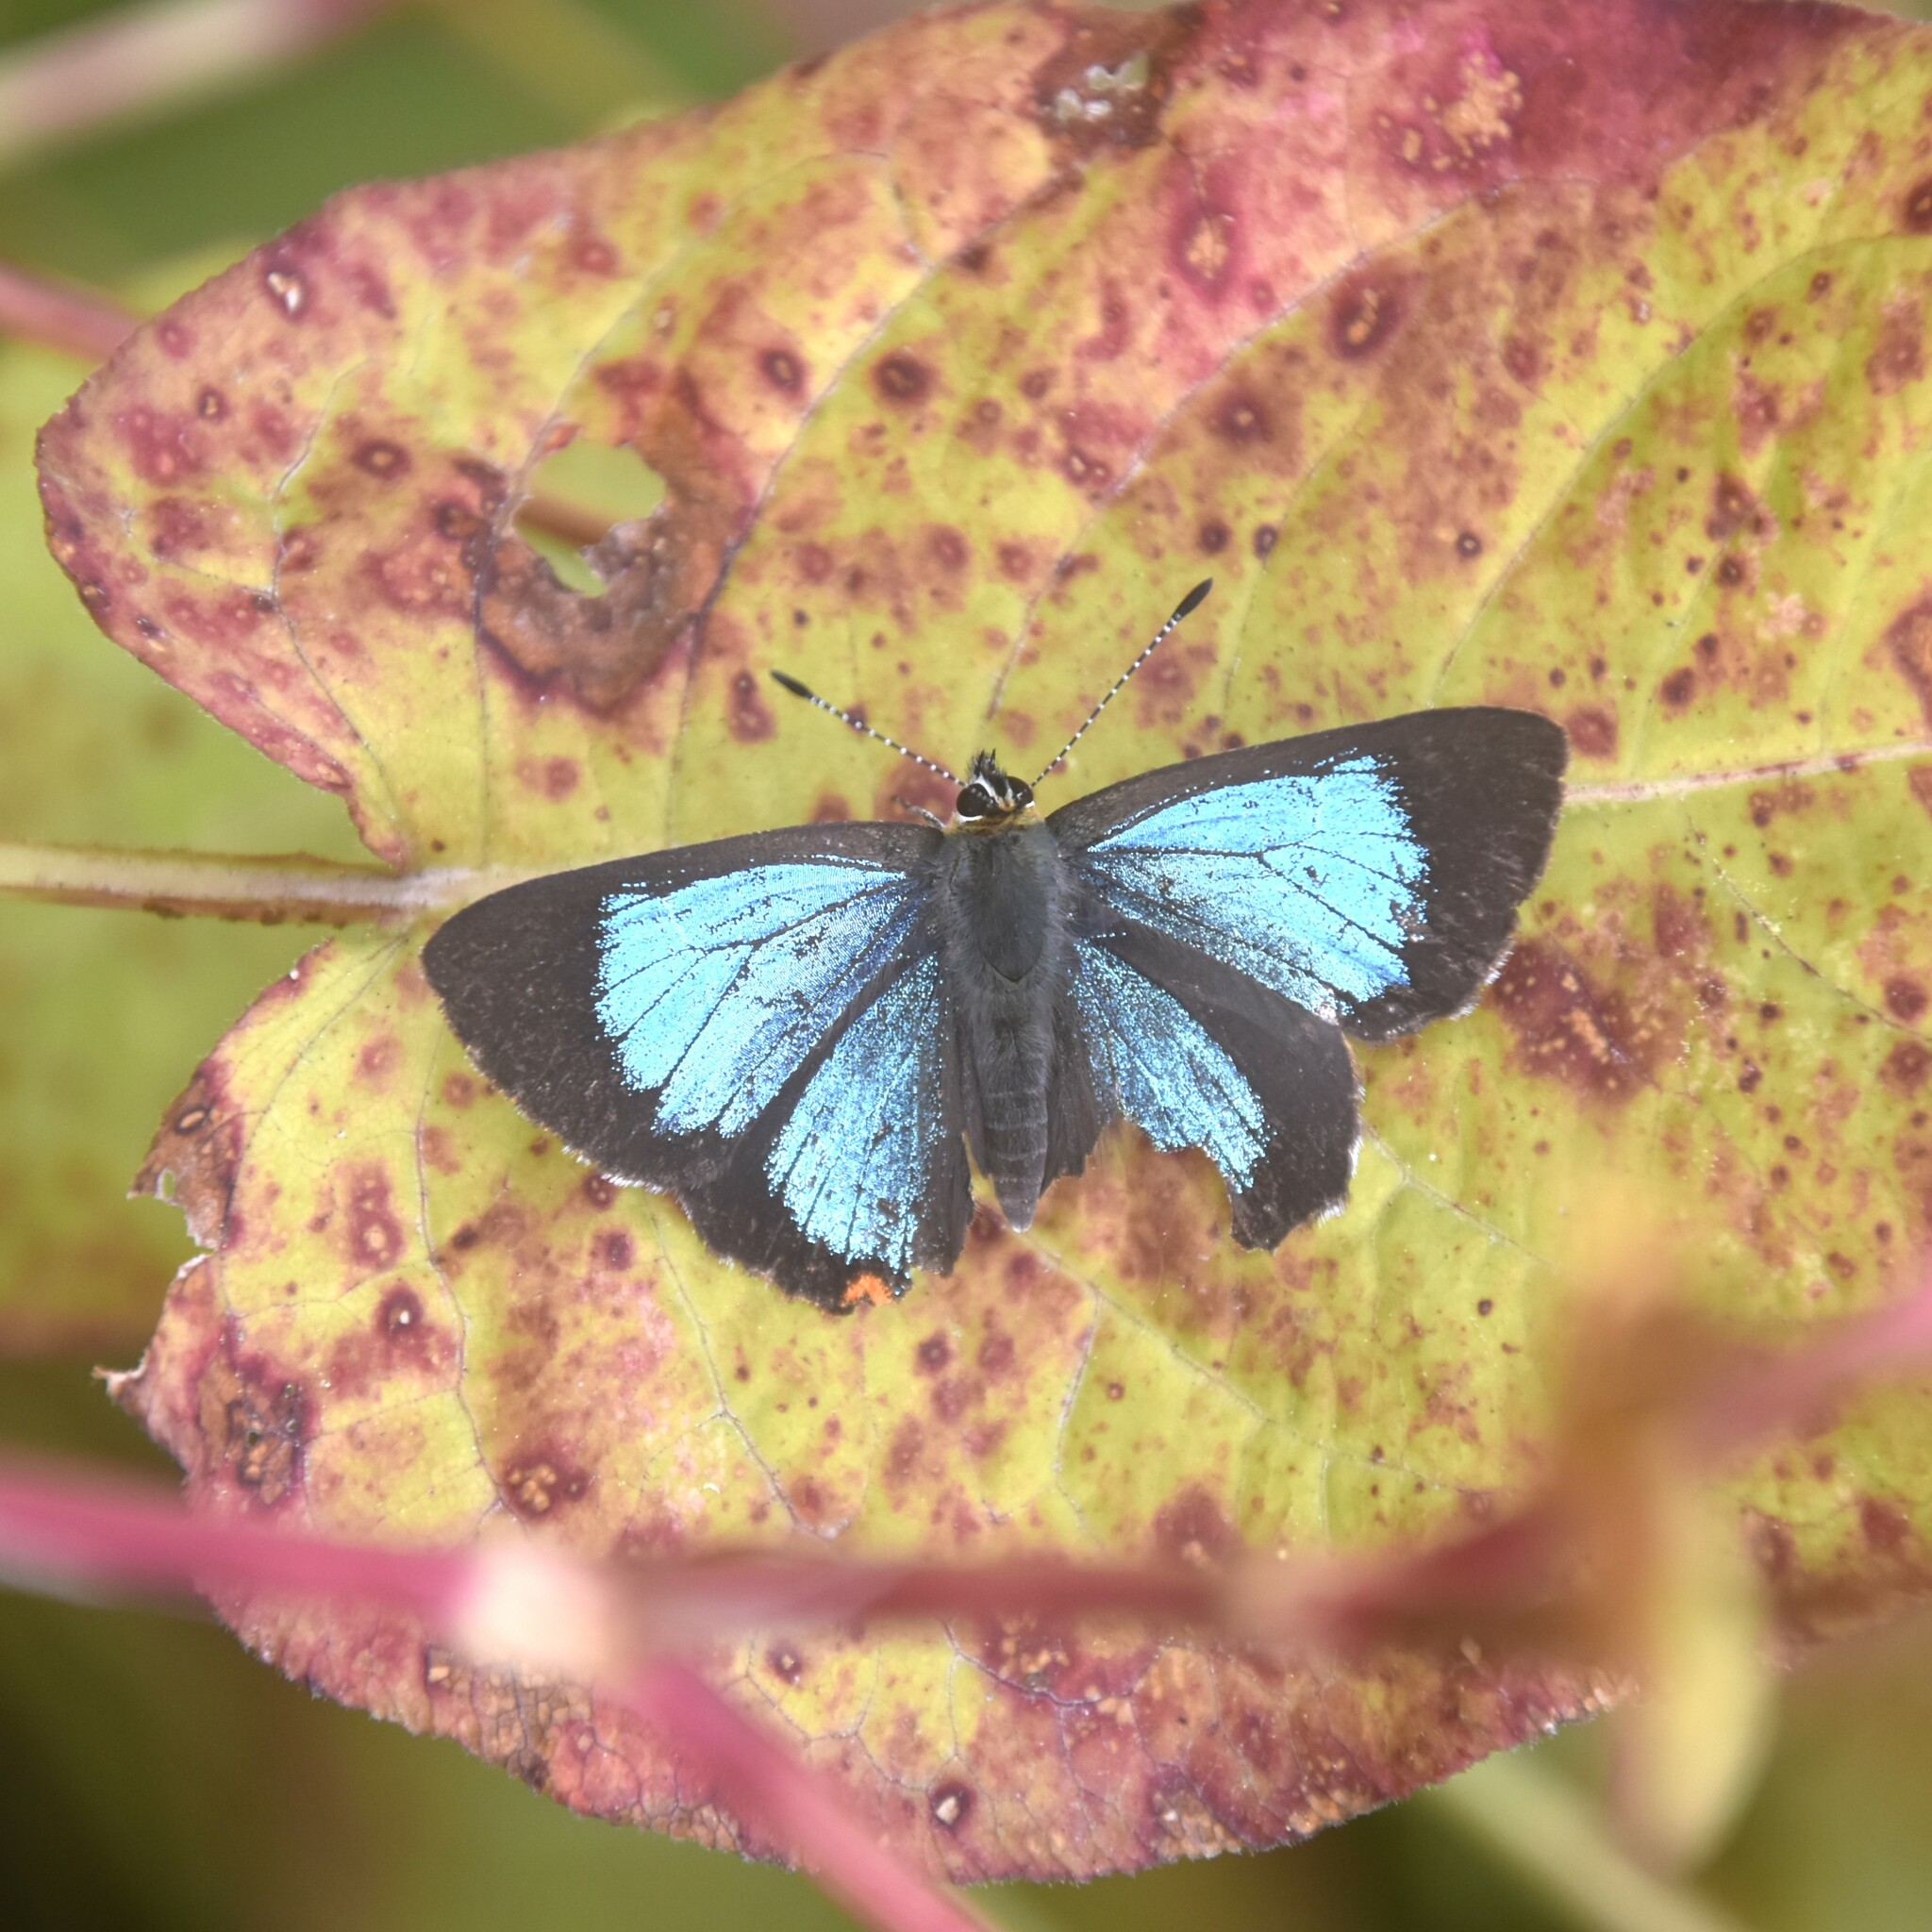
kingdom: Animalia
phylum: Arthropoda
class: Insecta
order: Lepidoptera
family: Lycaenidae
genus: Heliophorus
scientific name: Heliophorus
